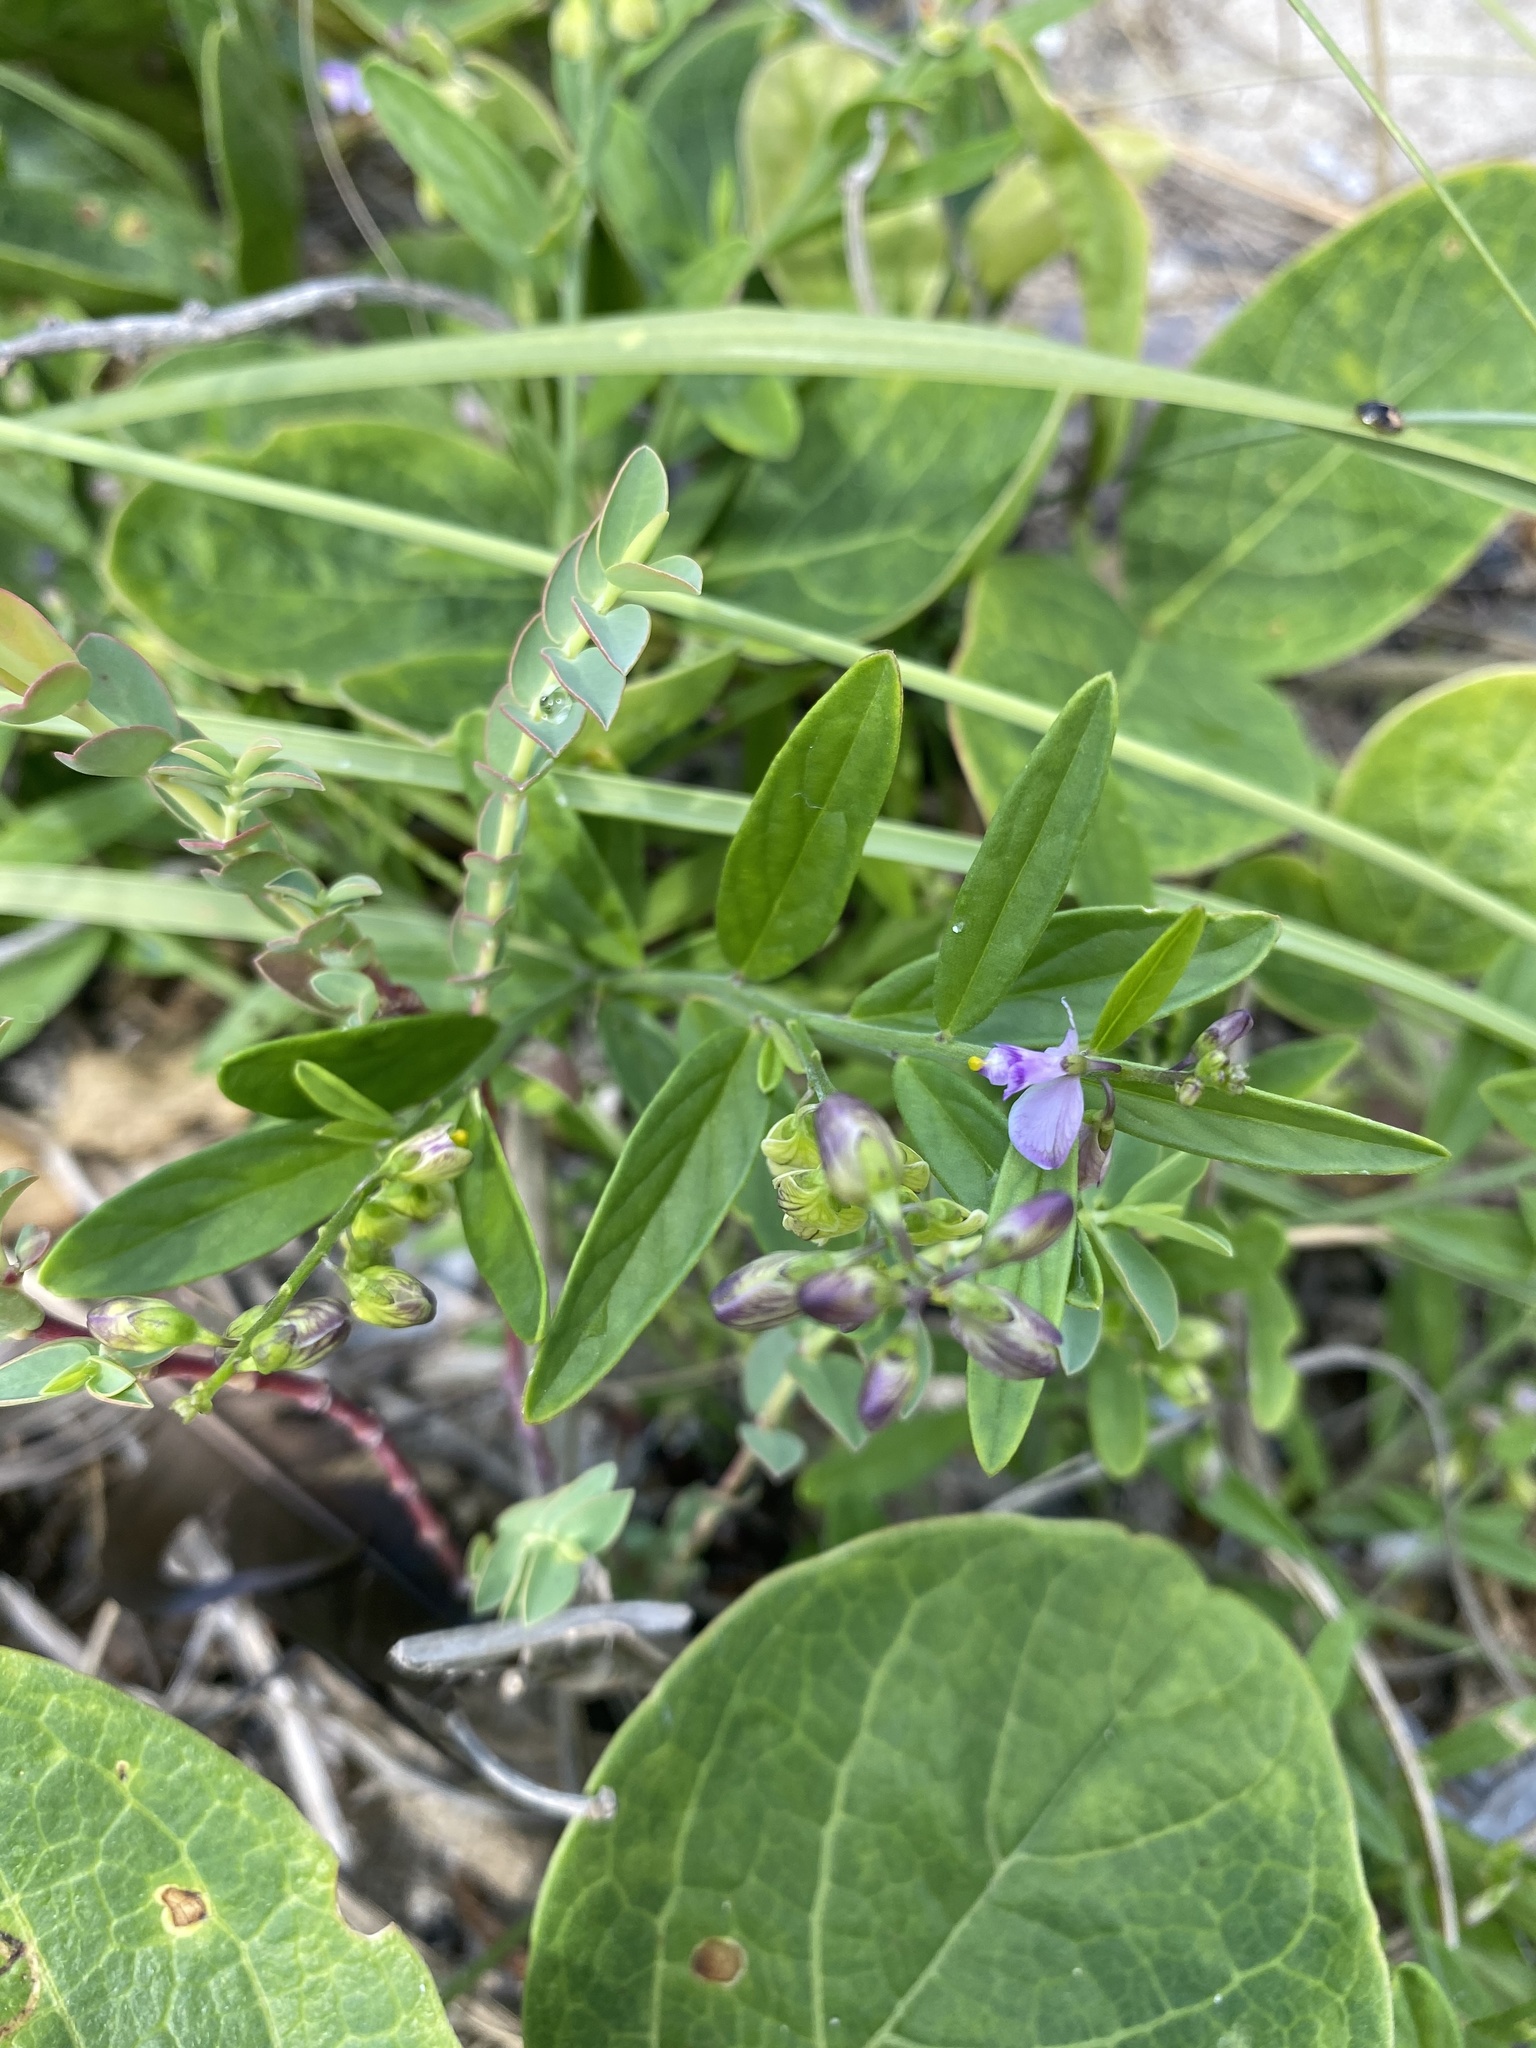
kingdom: Plantae
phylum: Tracheophyta
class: Magnoliopsida
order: Fabales
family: Polygalaceae
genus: Asemeia
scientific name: Asemeia grandiflora
